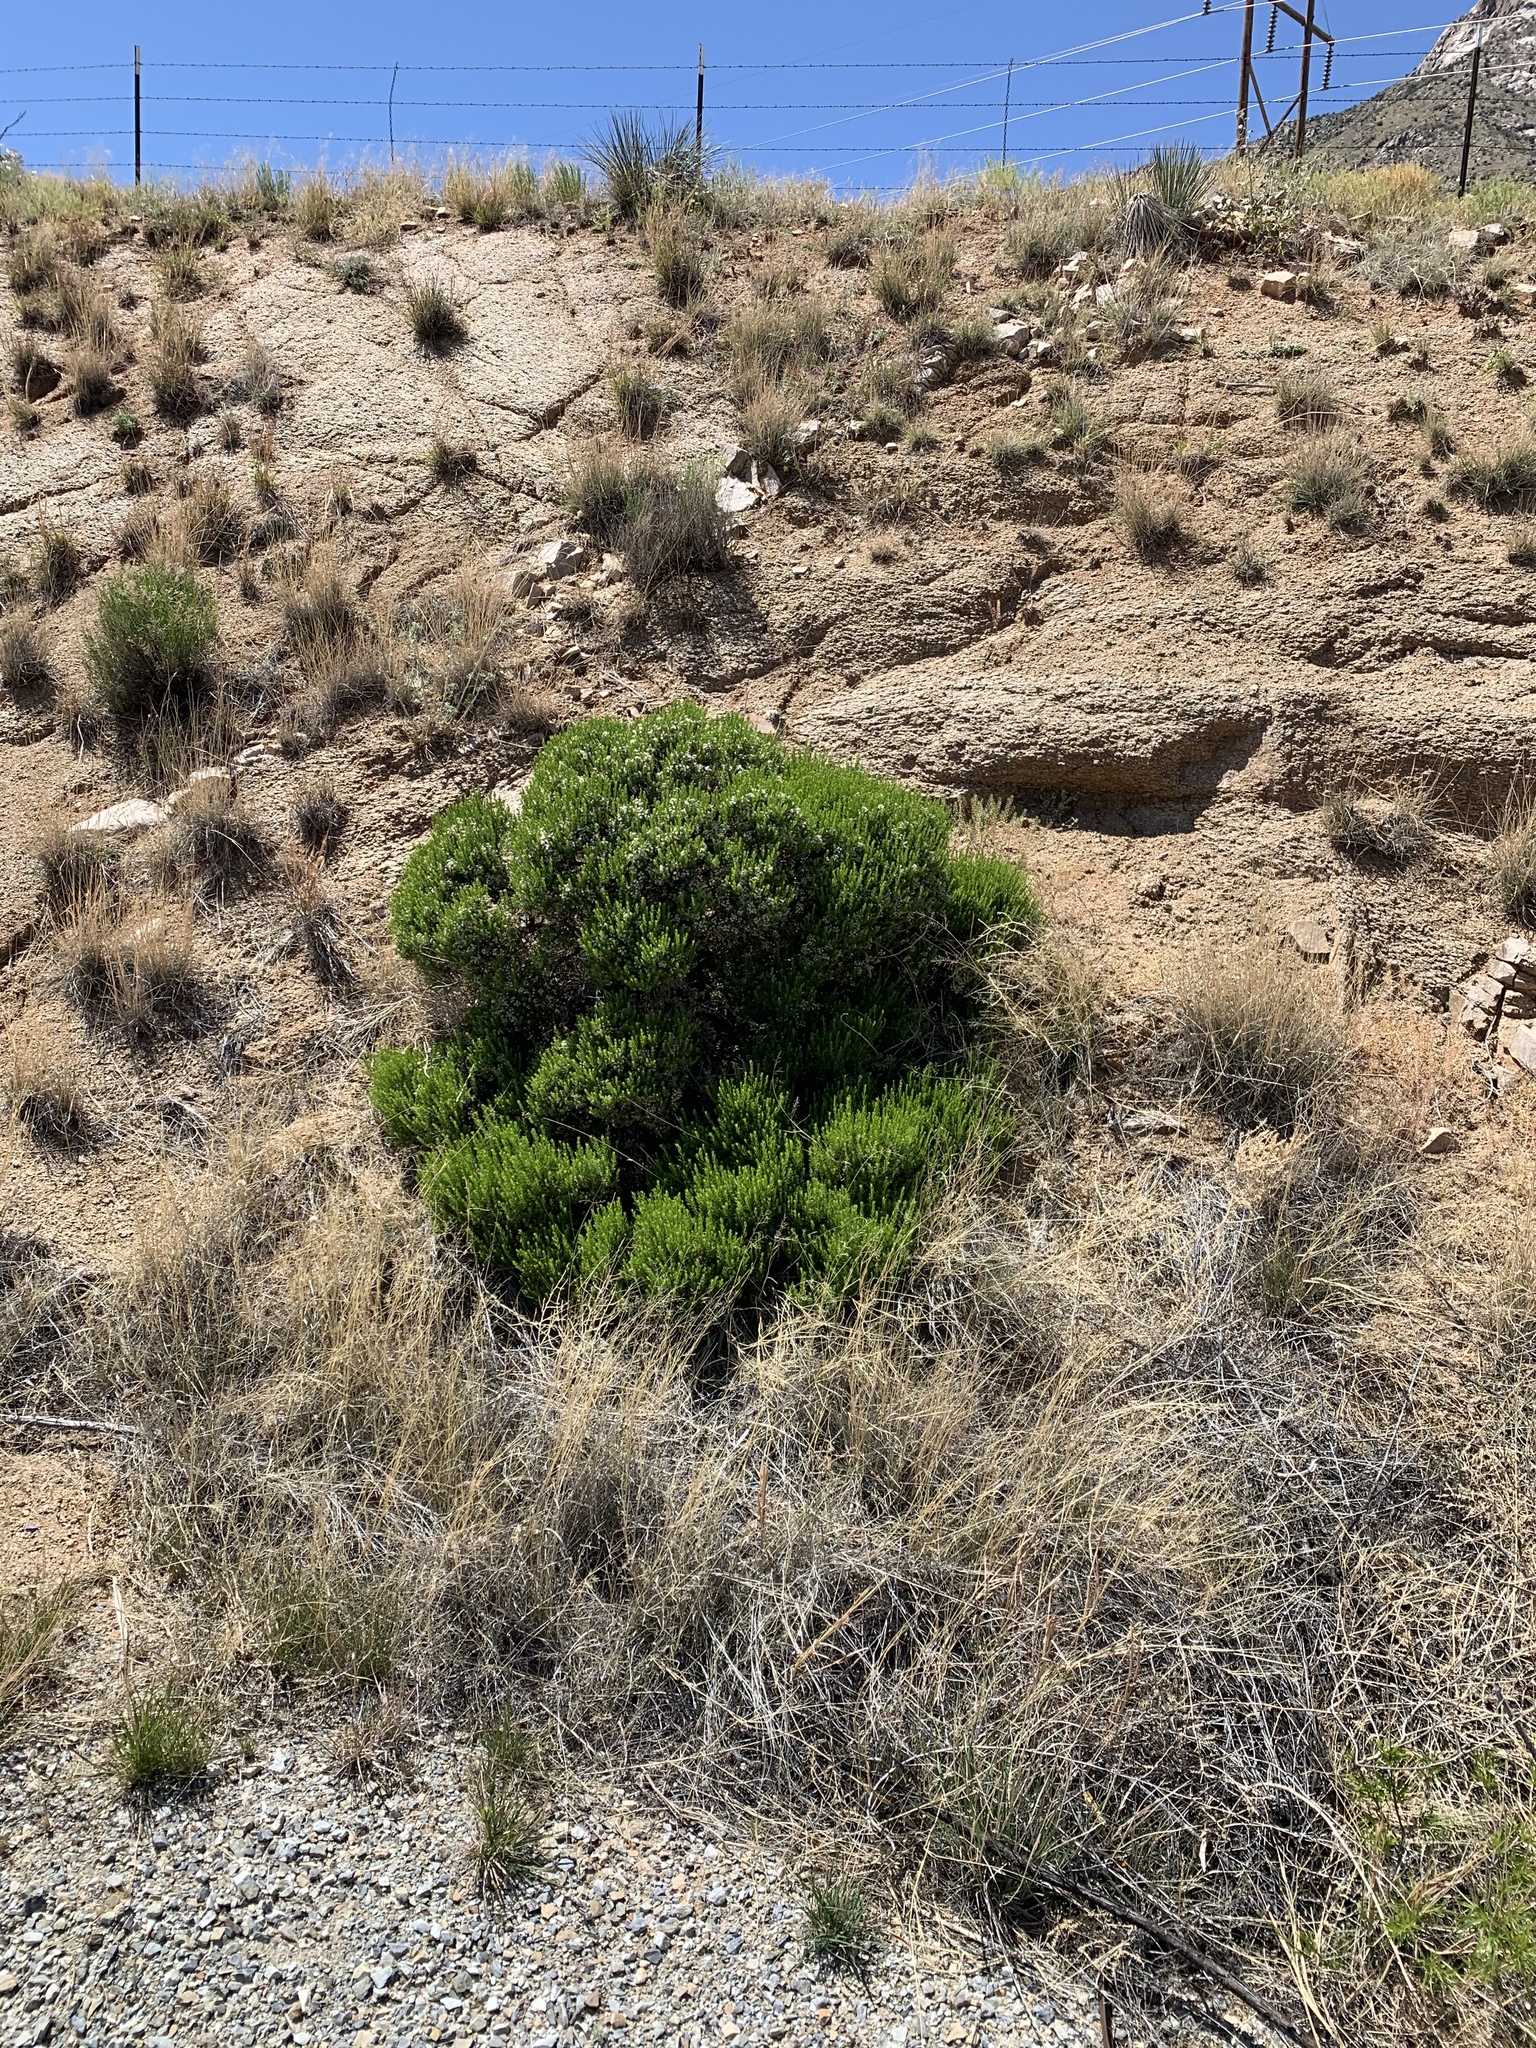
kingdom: Plantae
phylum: Tracheophyta
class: Magnoliopsida
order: Asterales
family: Asteraceae
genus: Ericameria
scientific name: Ericameria laricifolia
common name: Turpentine-bush
